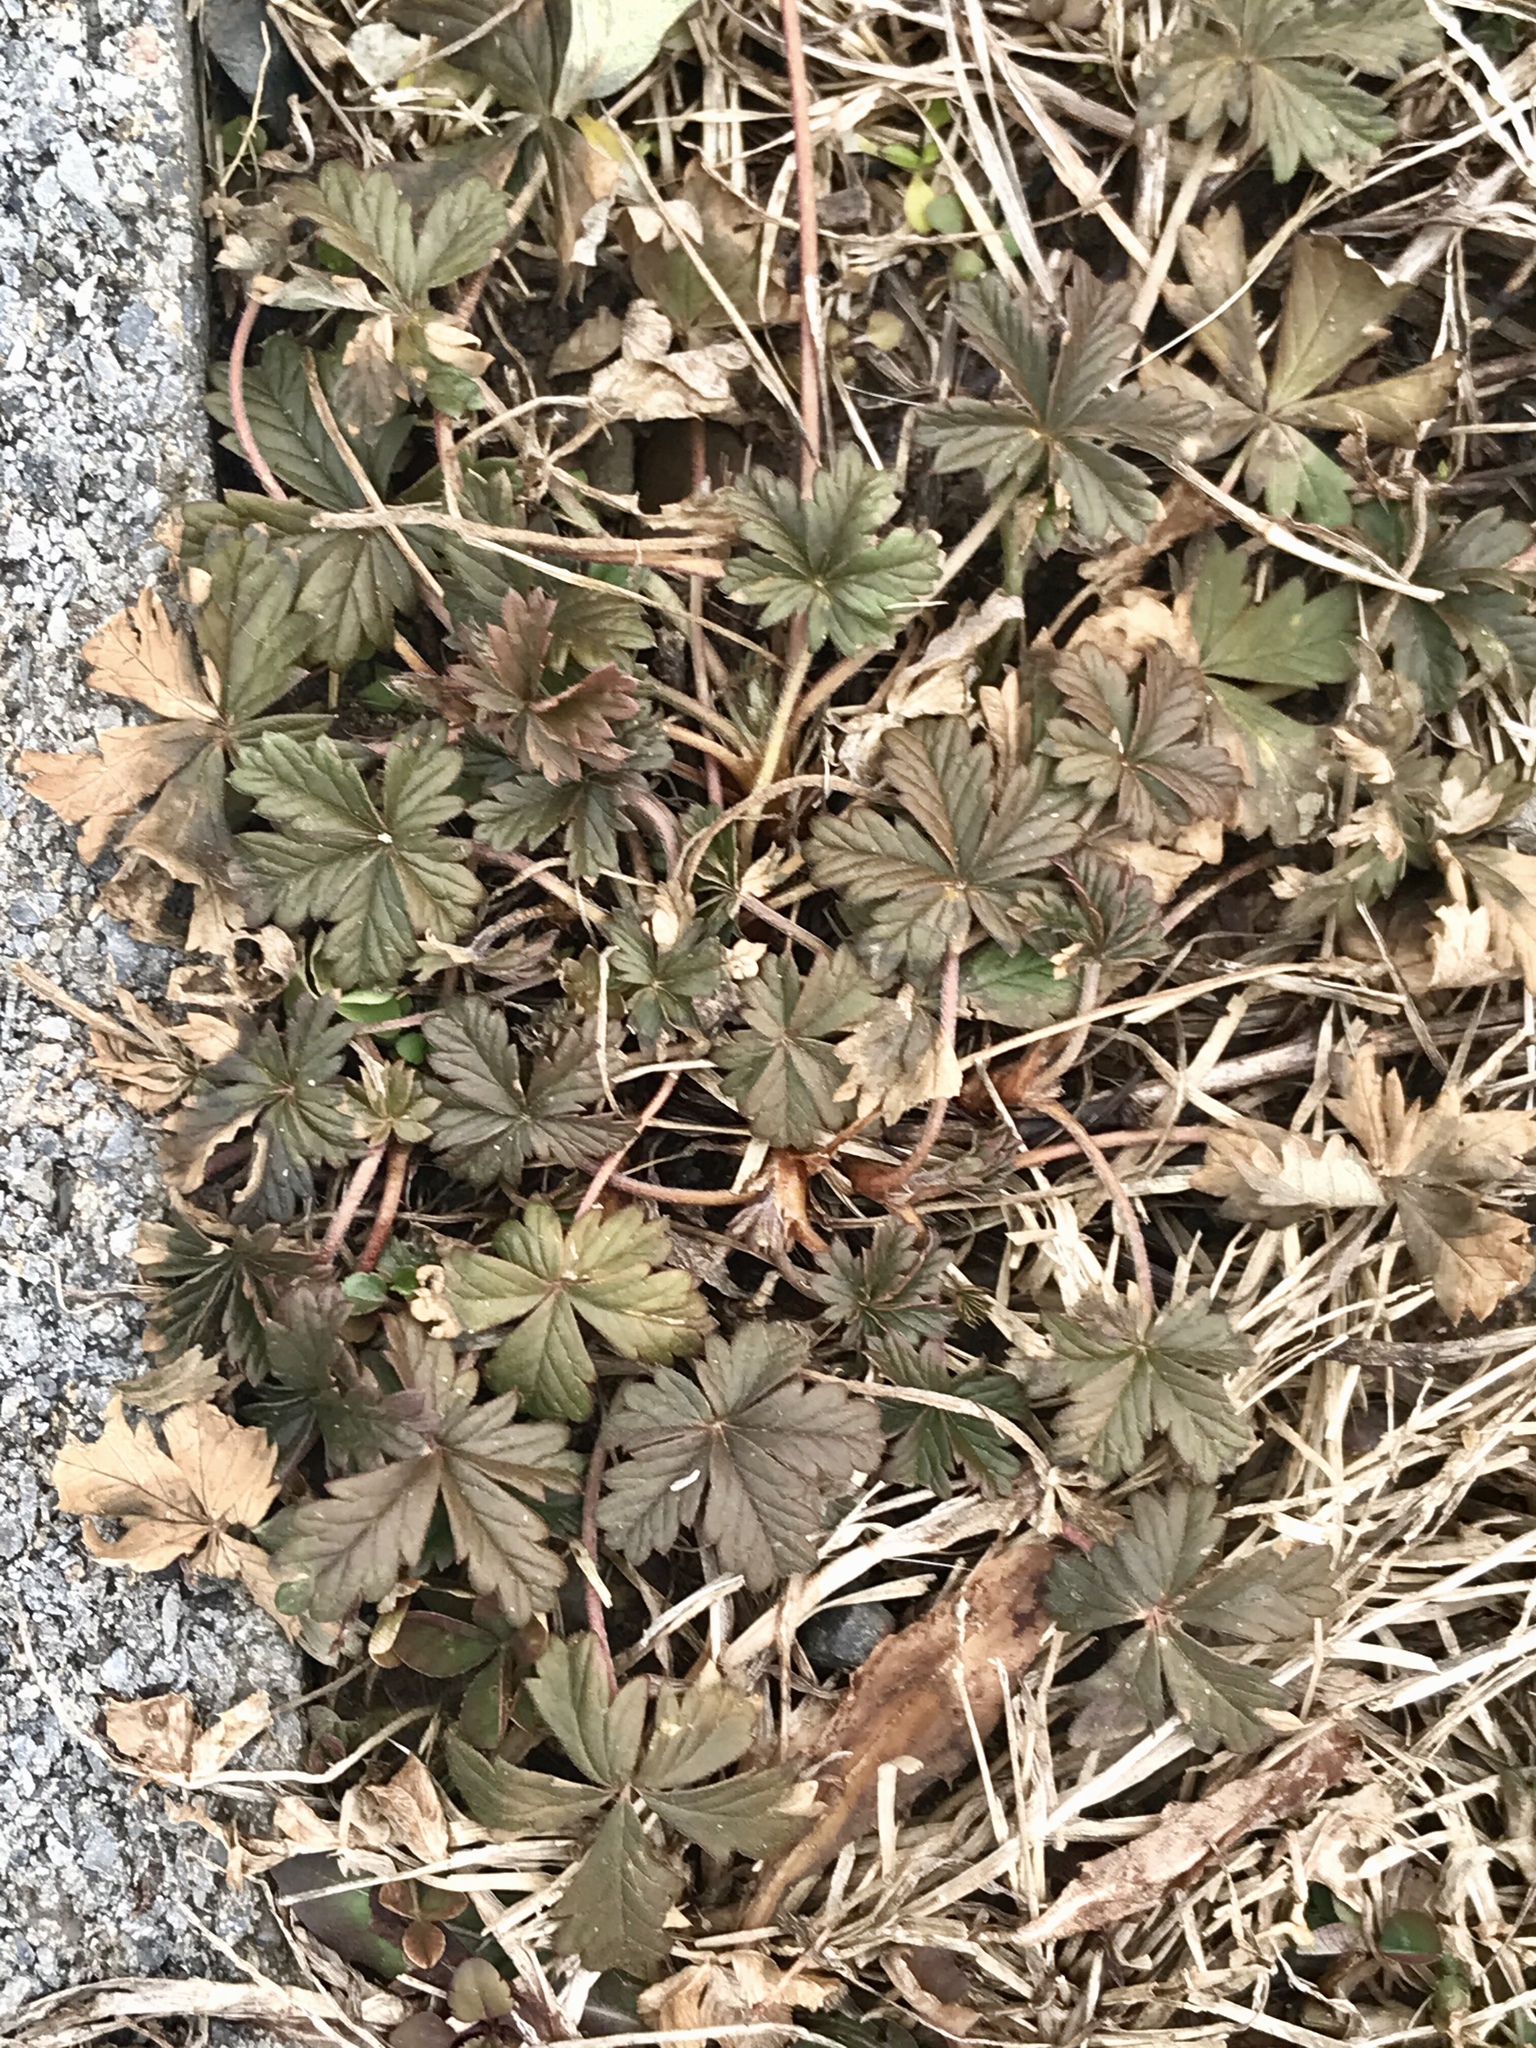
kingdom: Plantae
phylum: Tracheophyta
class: Magnoliopsida
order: Rosales
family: Rosaceae
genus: Potentilla
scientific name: Potentilla argentea
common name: Hoary cinquefoil
